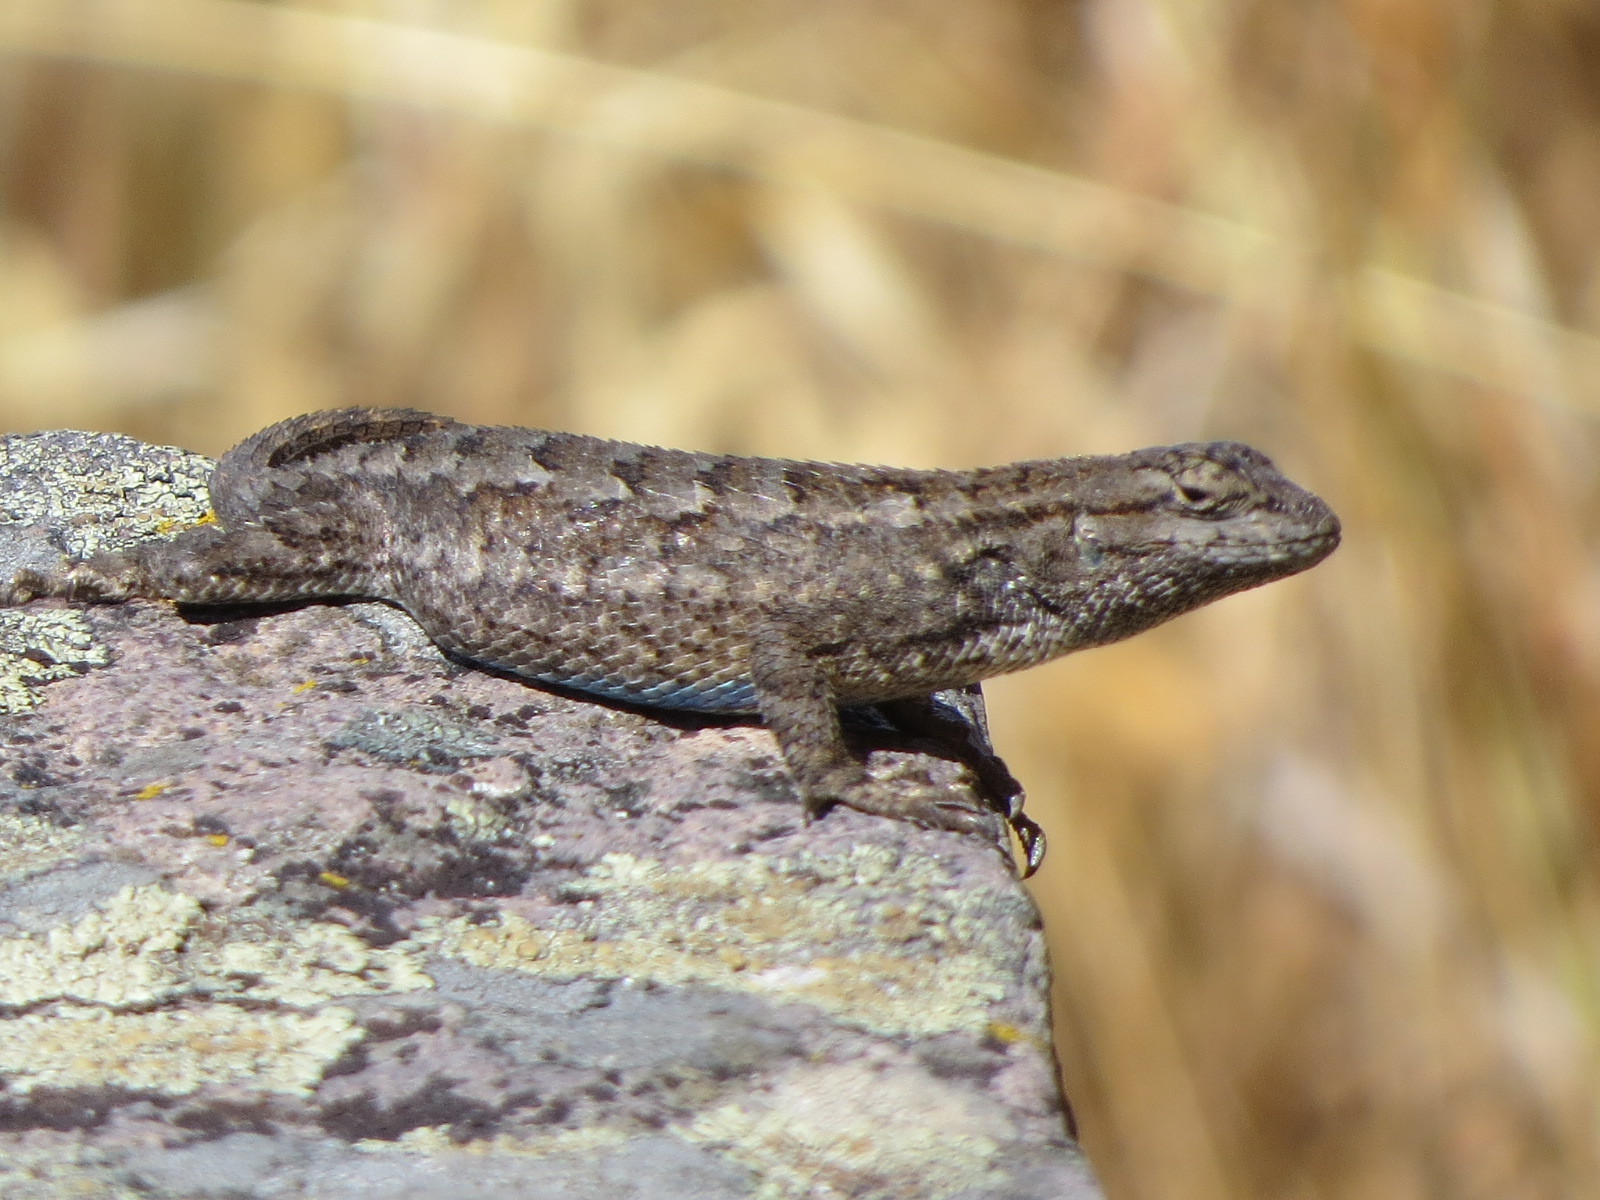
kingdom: Animalia
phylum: Chordata
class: Squamata
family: Phrynosomatidae
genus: Sceloporus
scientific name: Sceloporus occidentalis
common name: Western fence lizard
